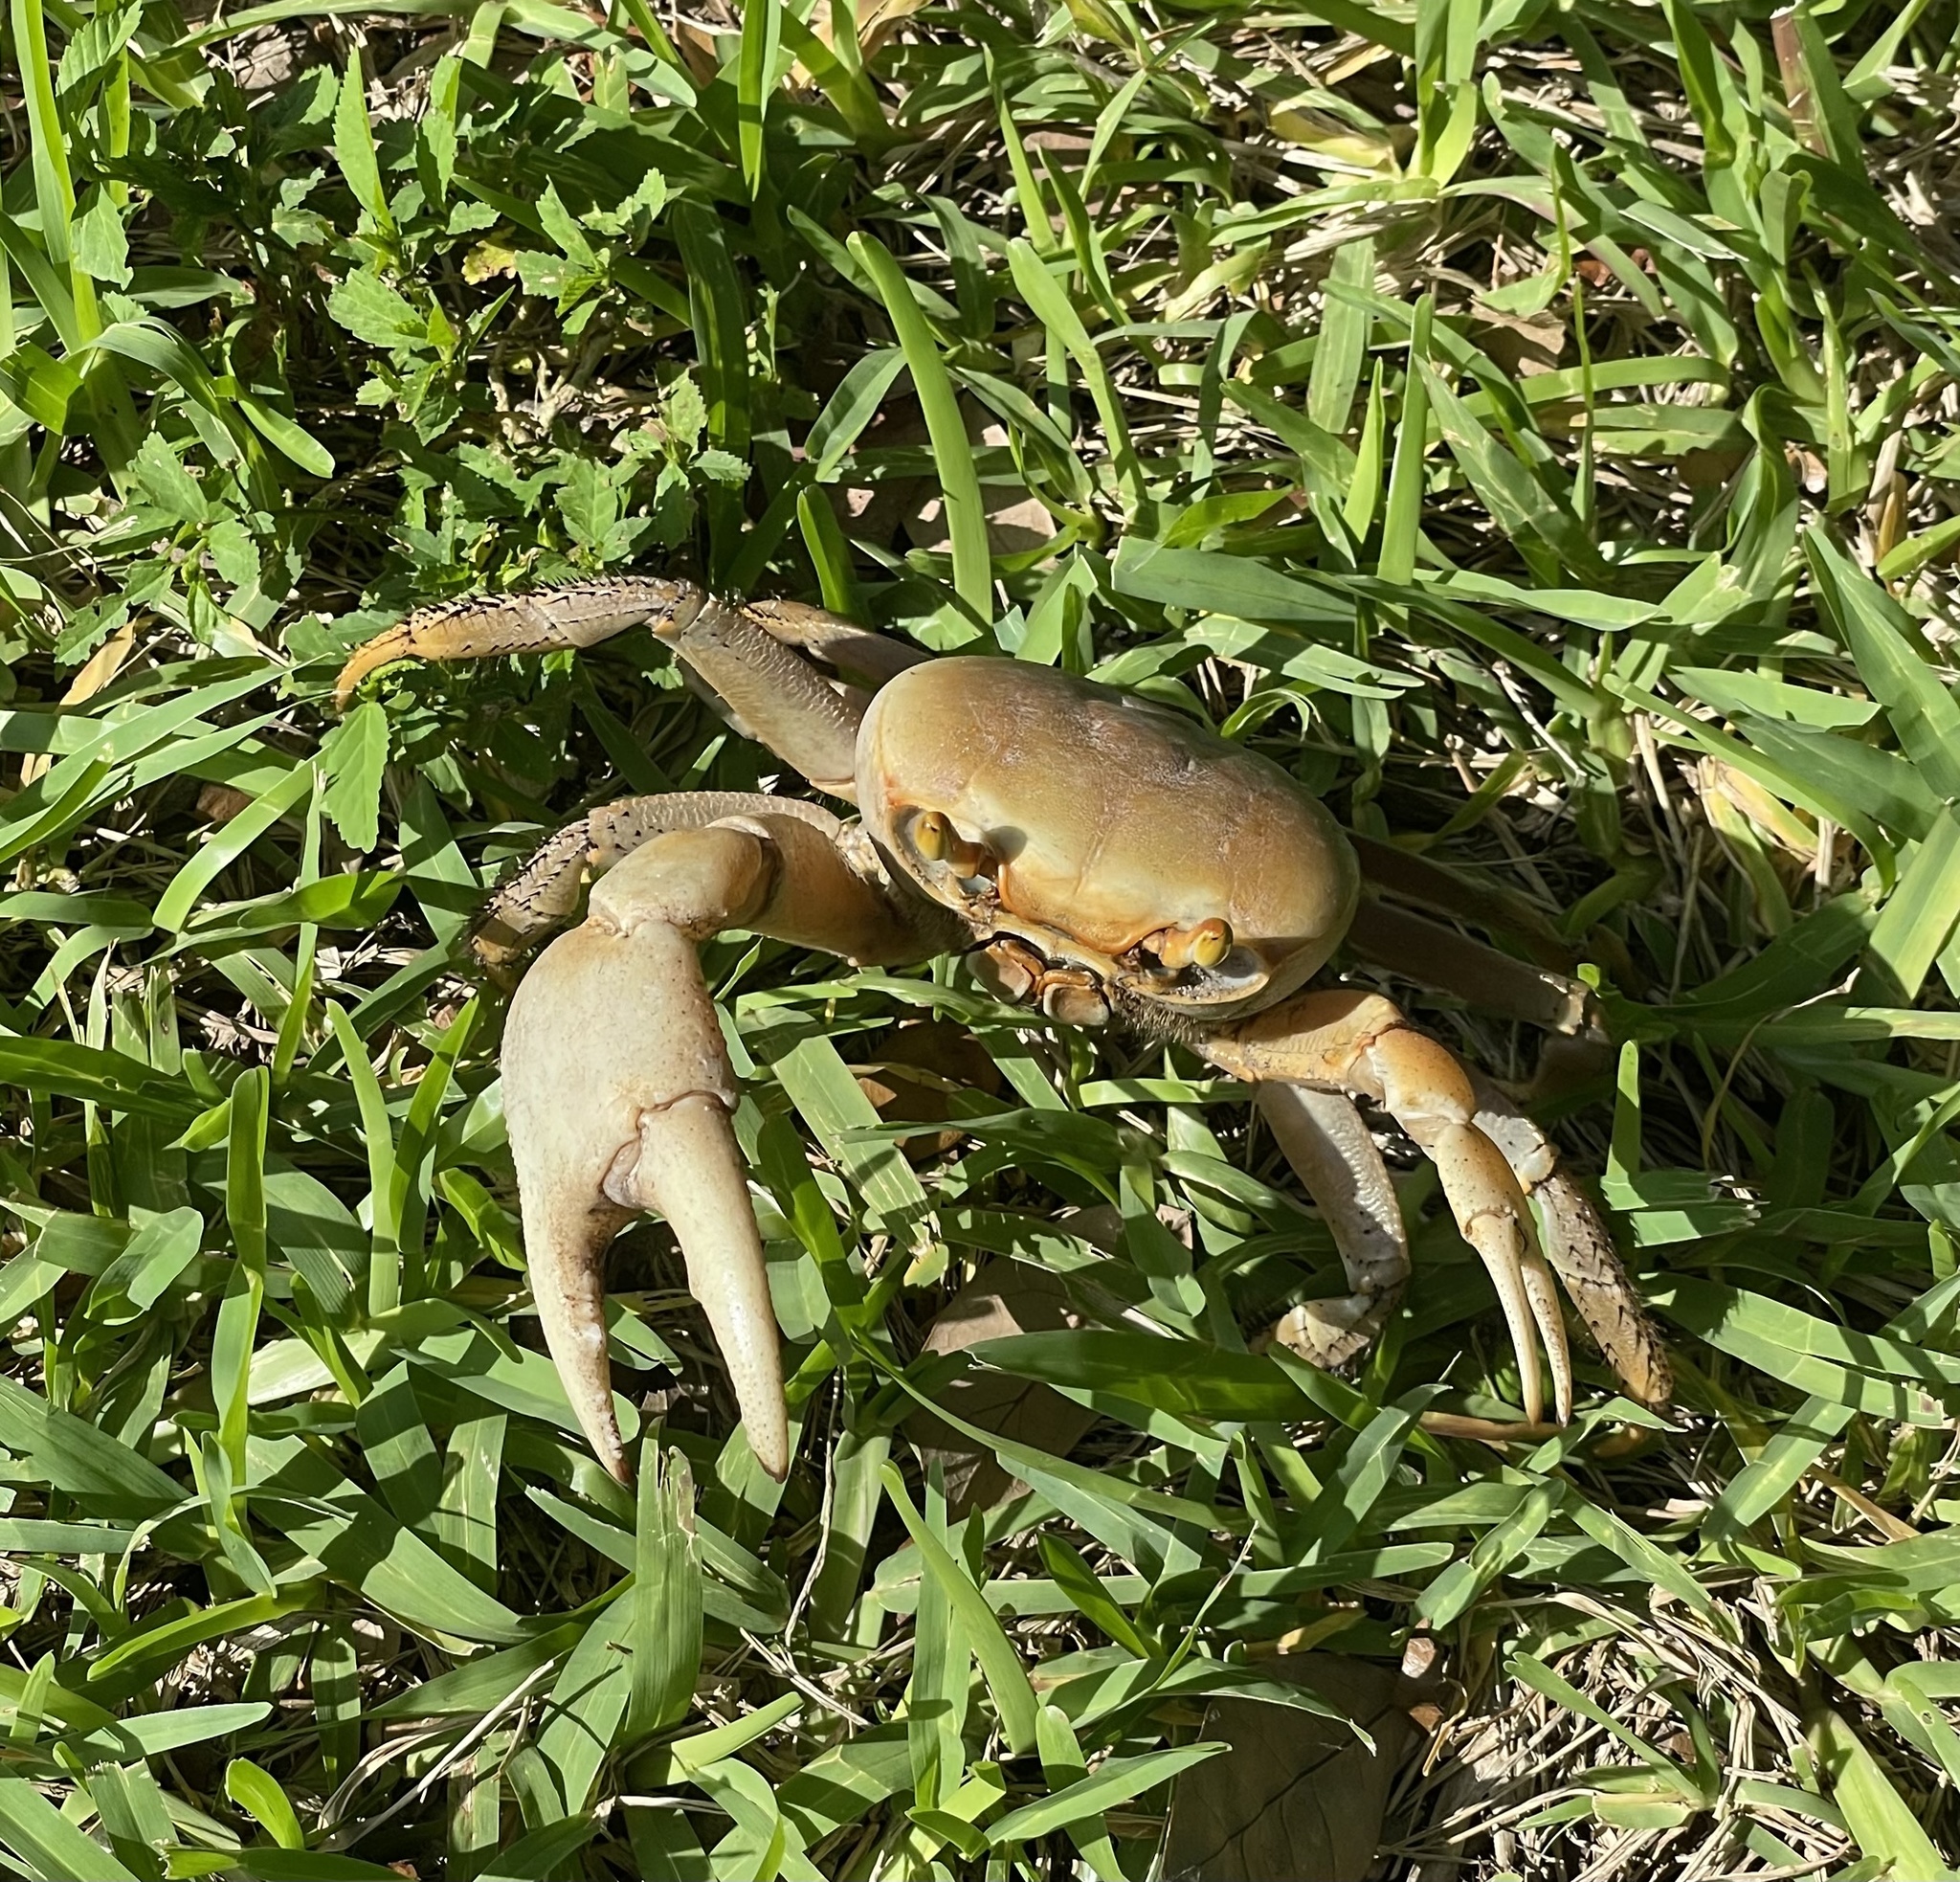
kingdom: Animalia
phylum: Arthropoda
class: Malacostraca
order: Decapoda
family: Gecarcinidae
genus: Cardisoma
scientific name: Cardisoma guanhumi
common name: Great land crab
